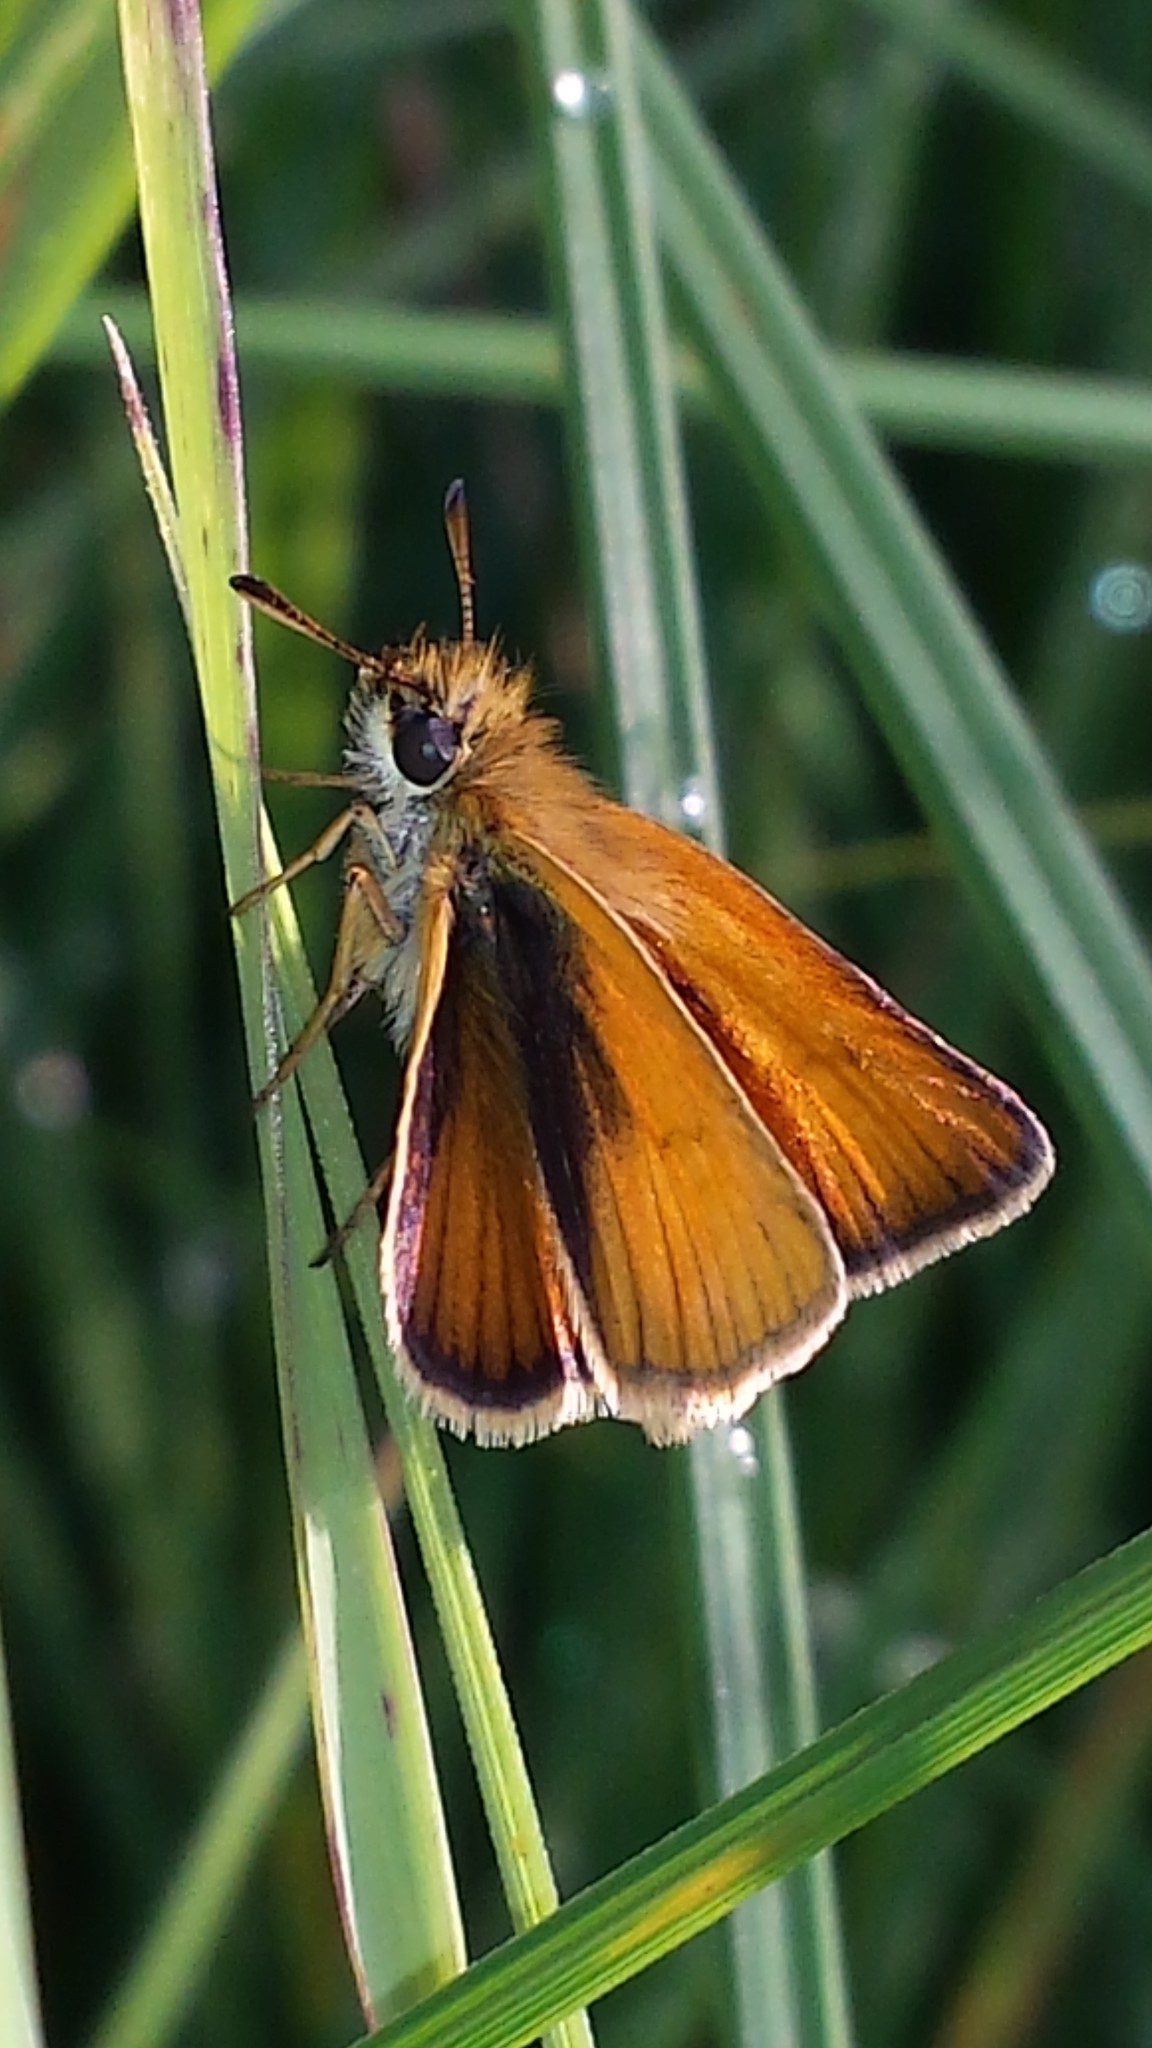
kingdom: Animalia
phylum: Arthropoda
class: Insecta
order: Lepidoptera
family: Hesperiidae
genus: Thymelicus
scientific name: Thymelicus lineola
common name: Essex skipper
